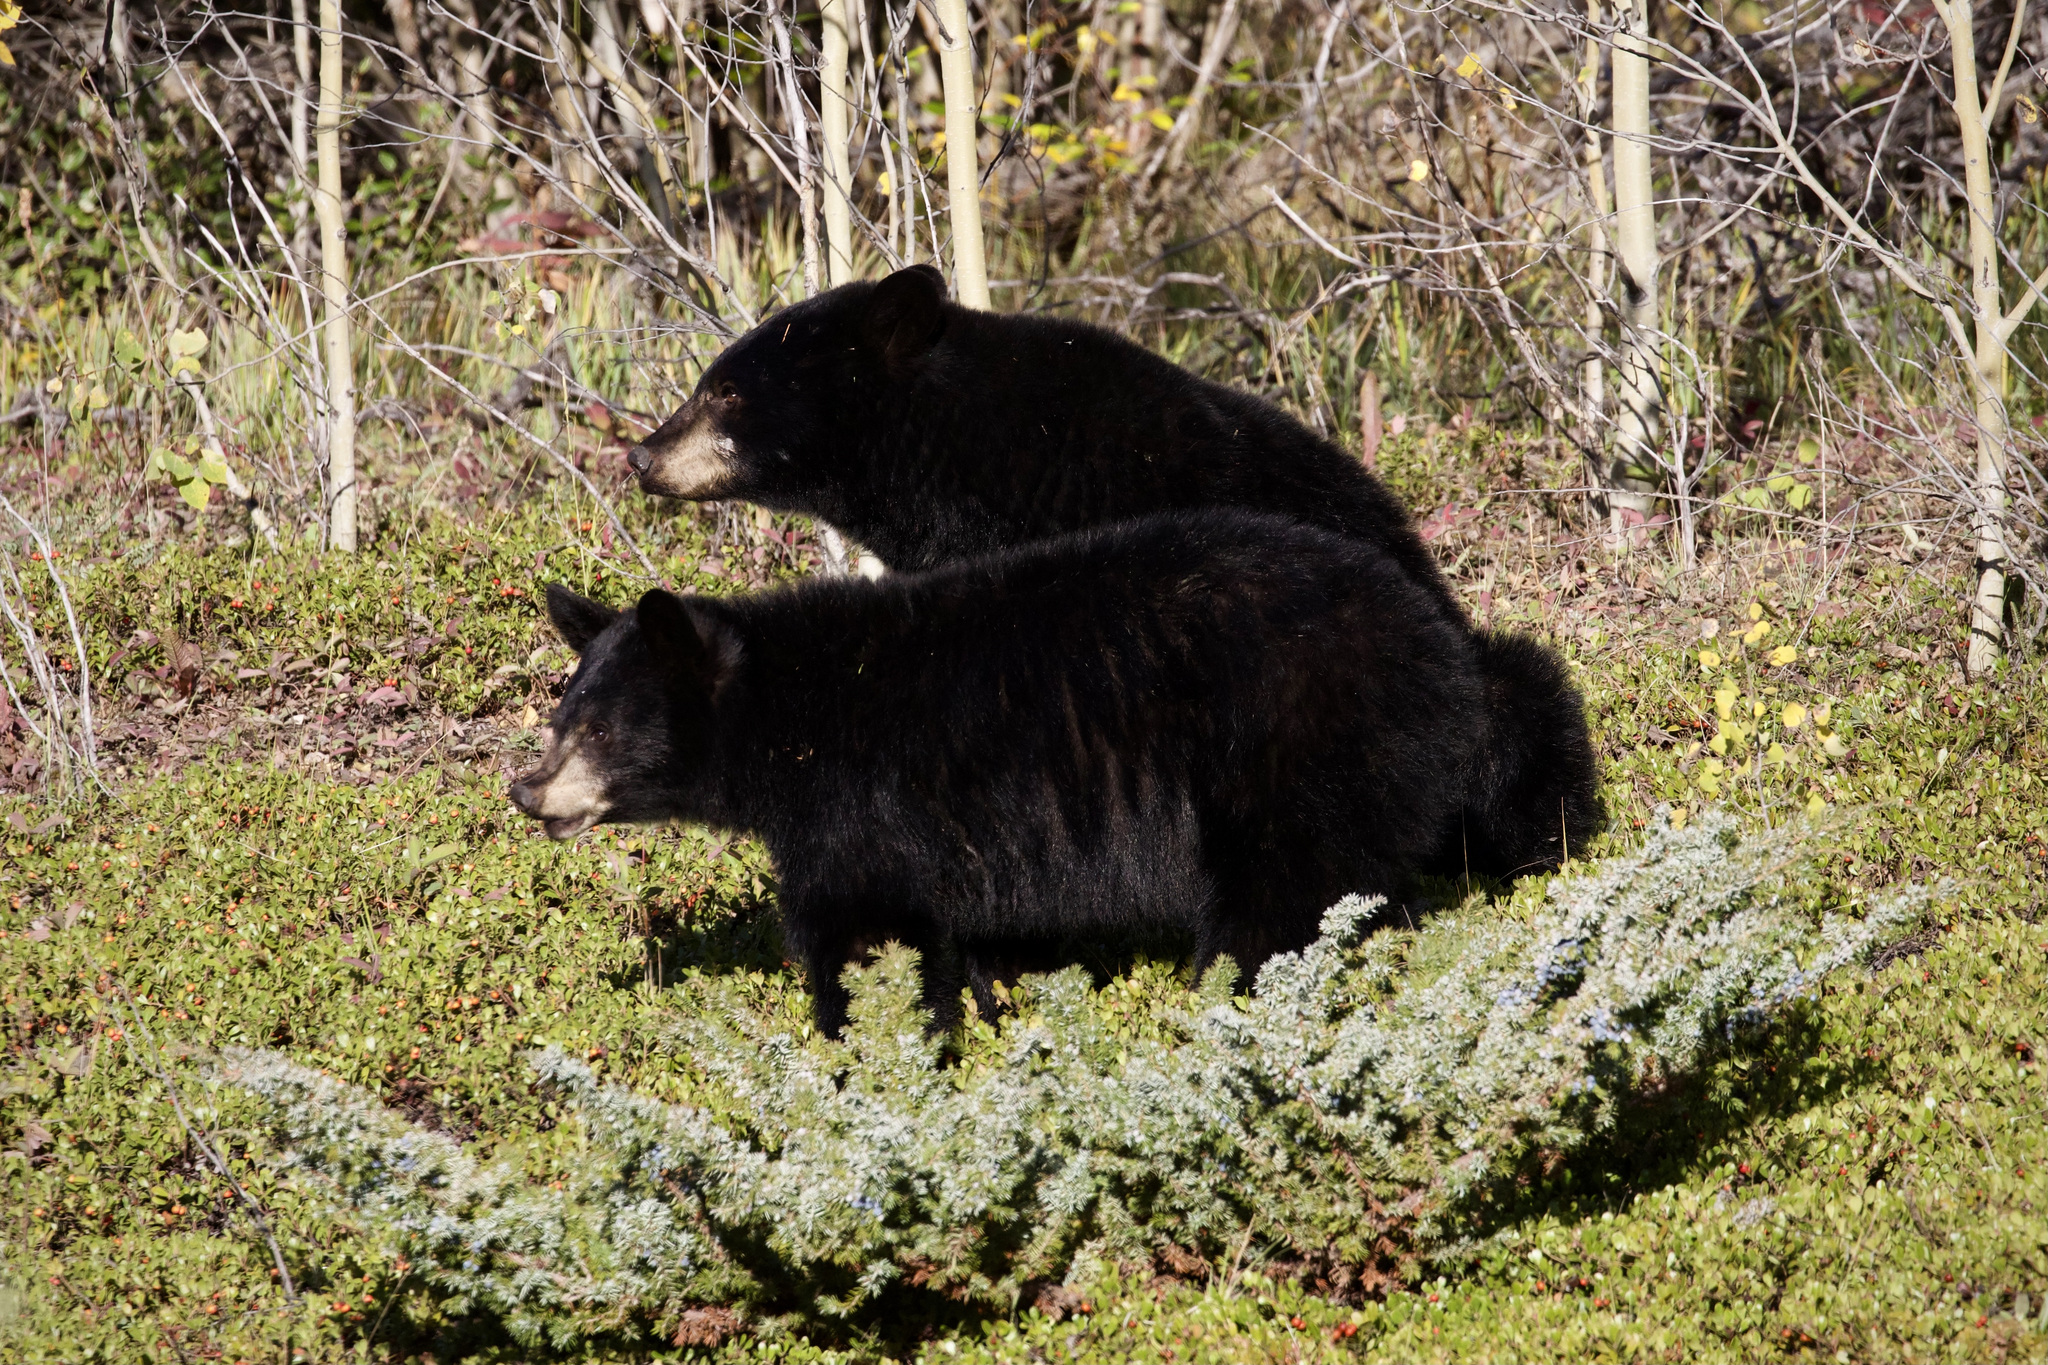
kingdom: Animalia
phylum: Chordata
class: Mammalia
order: Carnivora
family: Ursidae
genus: Ursus
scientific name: Ursus americanus
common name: American black bear
